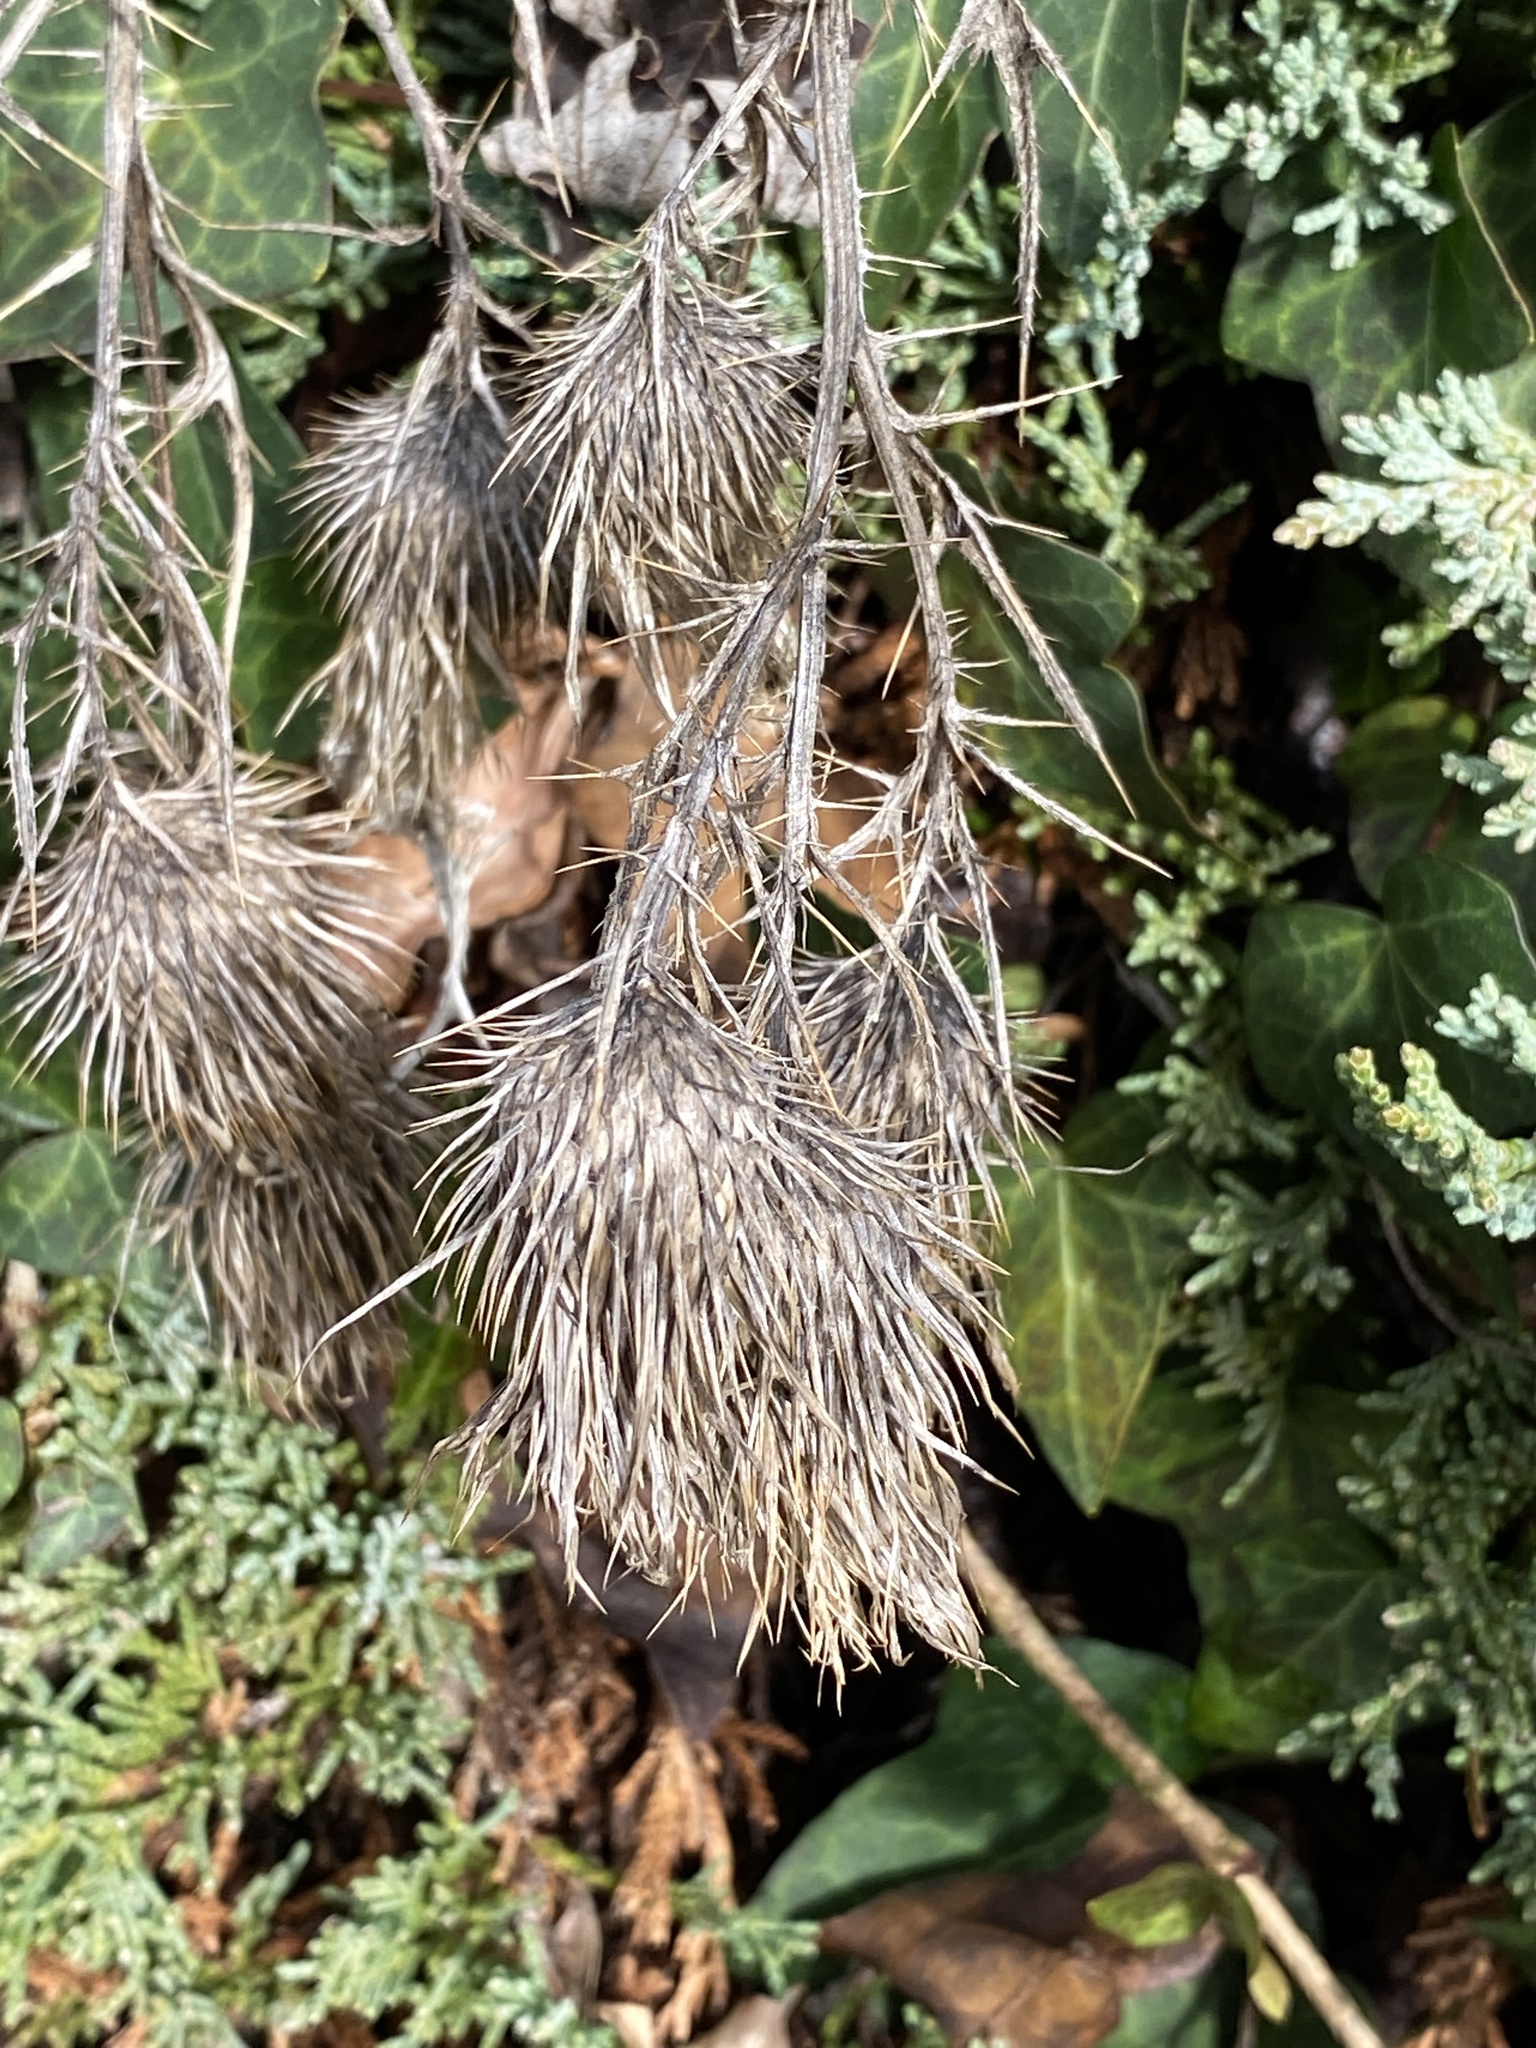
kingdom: Plantae
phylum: Tracheophyta
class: Magnoliopsida
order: Asterales
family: Asteraceae
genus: Cirsium
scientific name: Cirsium vulgare
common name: Bull thistle
